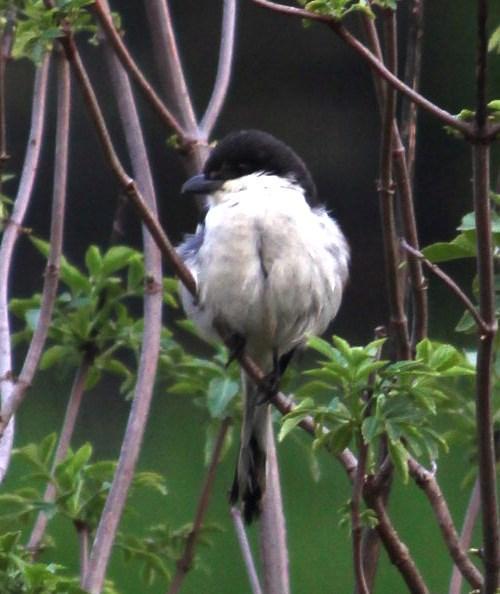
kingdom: Animalia
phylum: Chordata
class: Aves
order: Passeriformes
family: Laniidae
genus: Lanius
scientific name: Lanius collaris
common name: Southern fiscal
